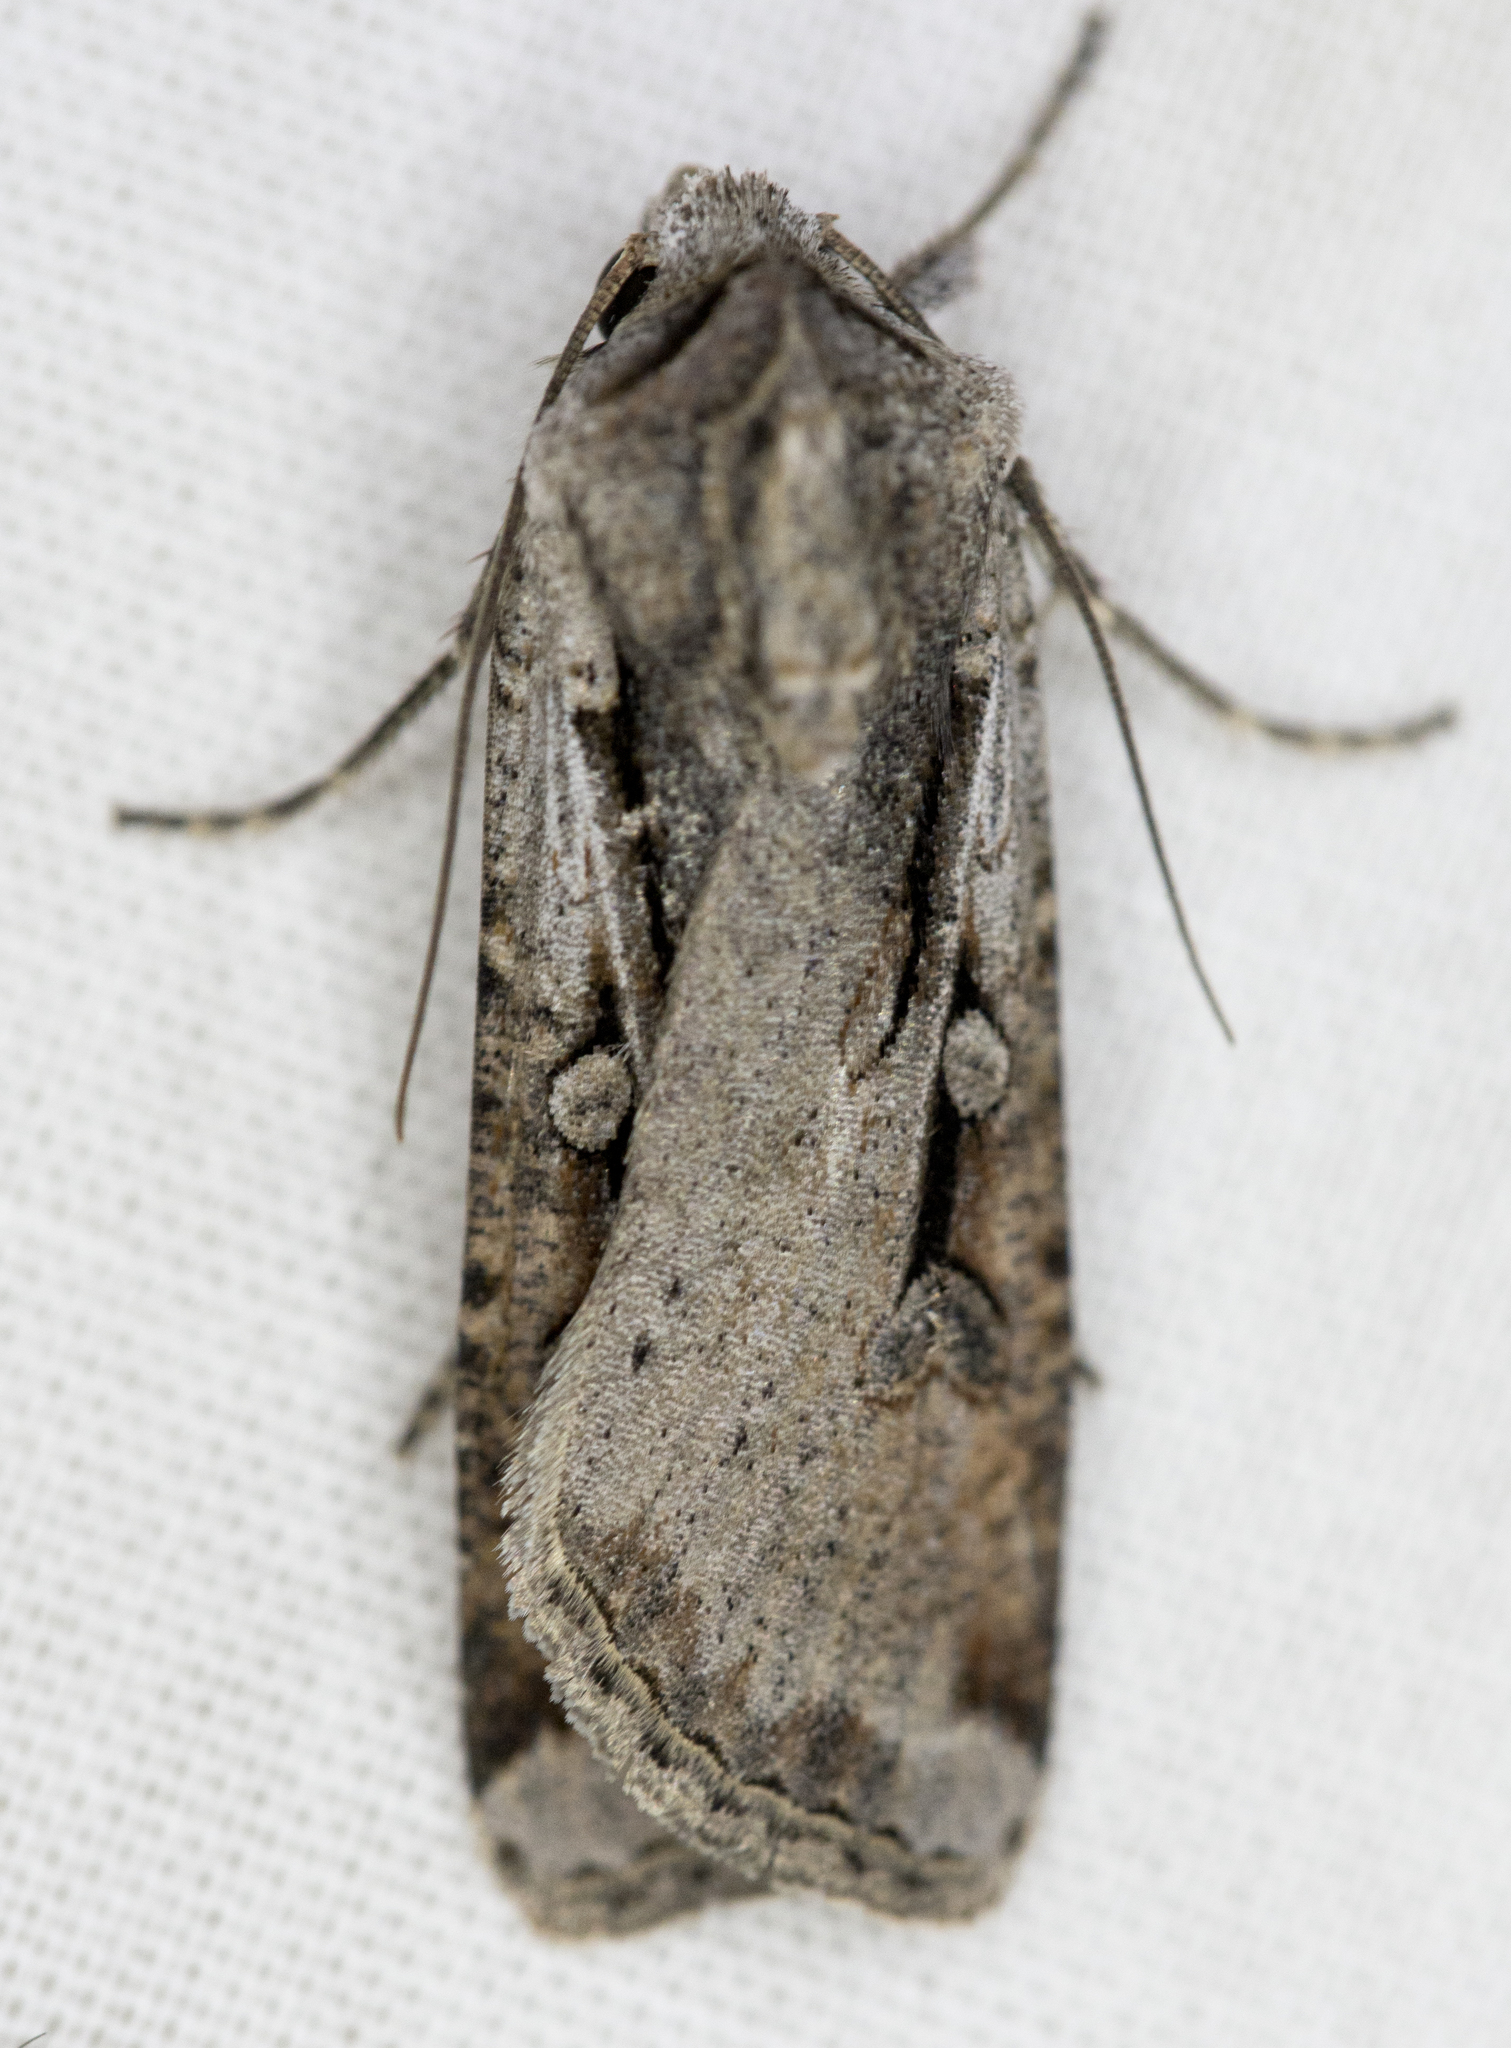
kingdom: Animalia
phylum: Arthropoda
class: Insecta
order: Lepidoptera
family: Noctuidae
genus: Hemieuxoa
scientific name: Hemieuxoa rudens
